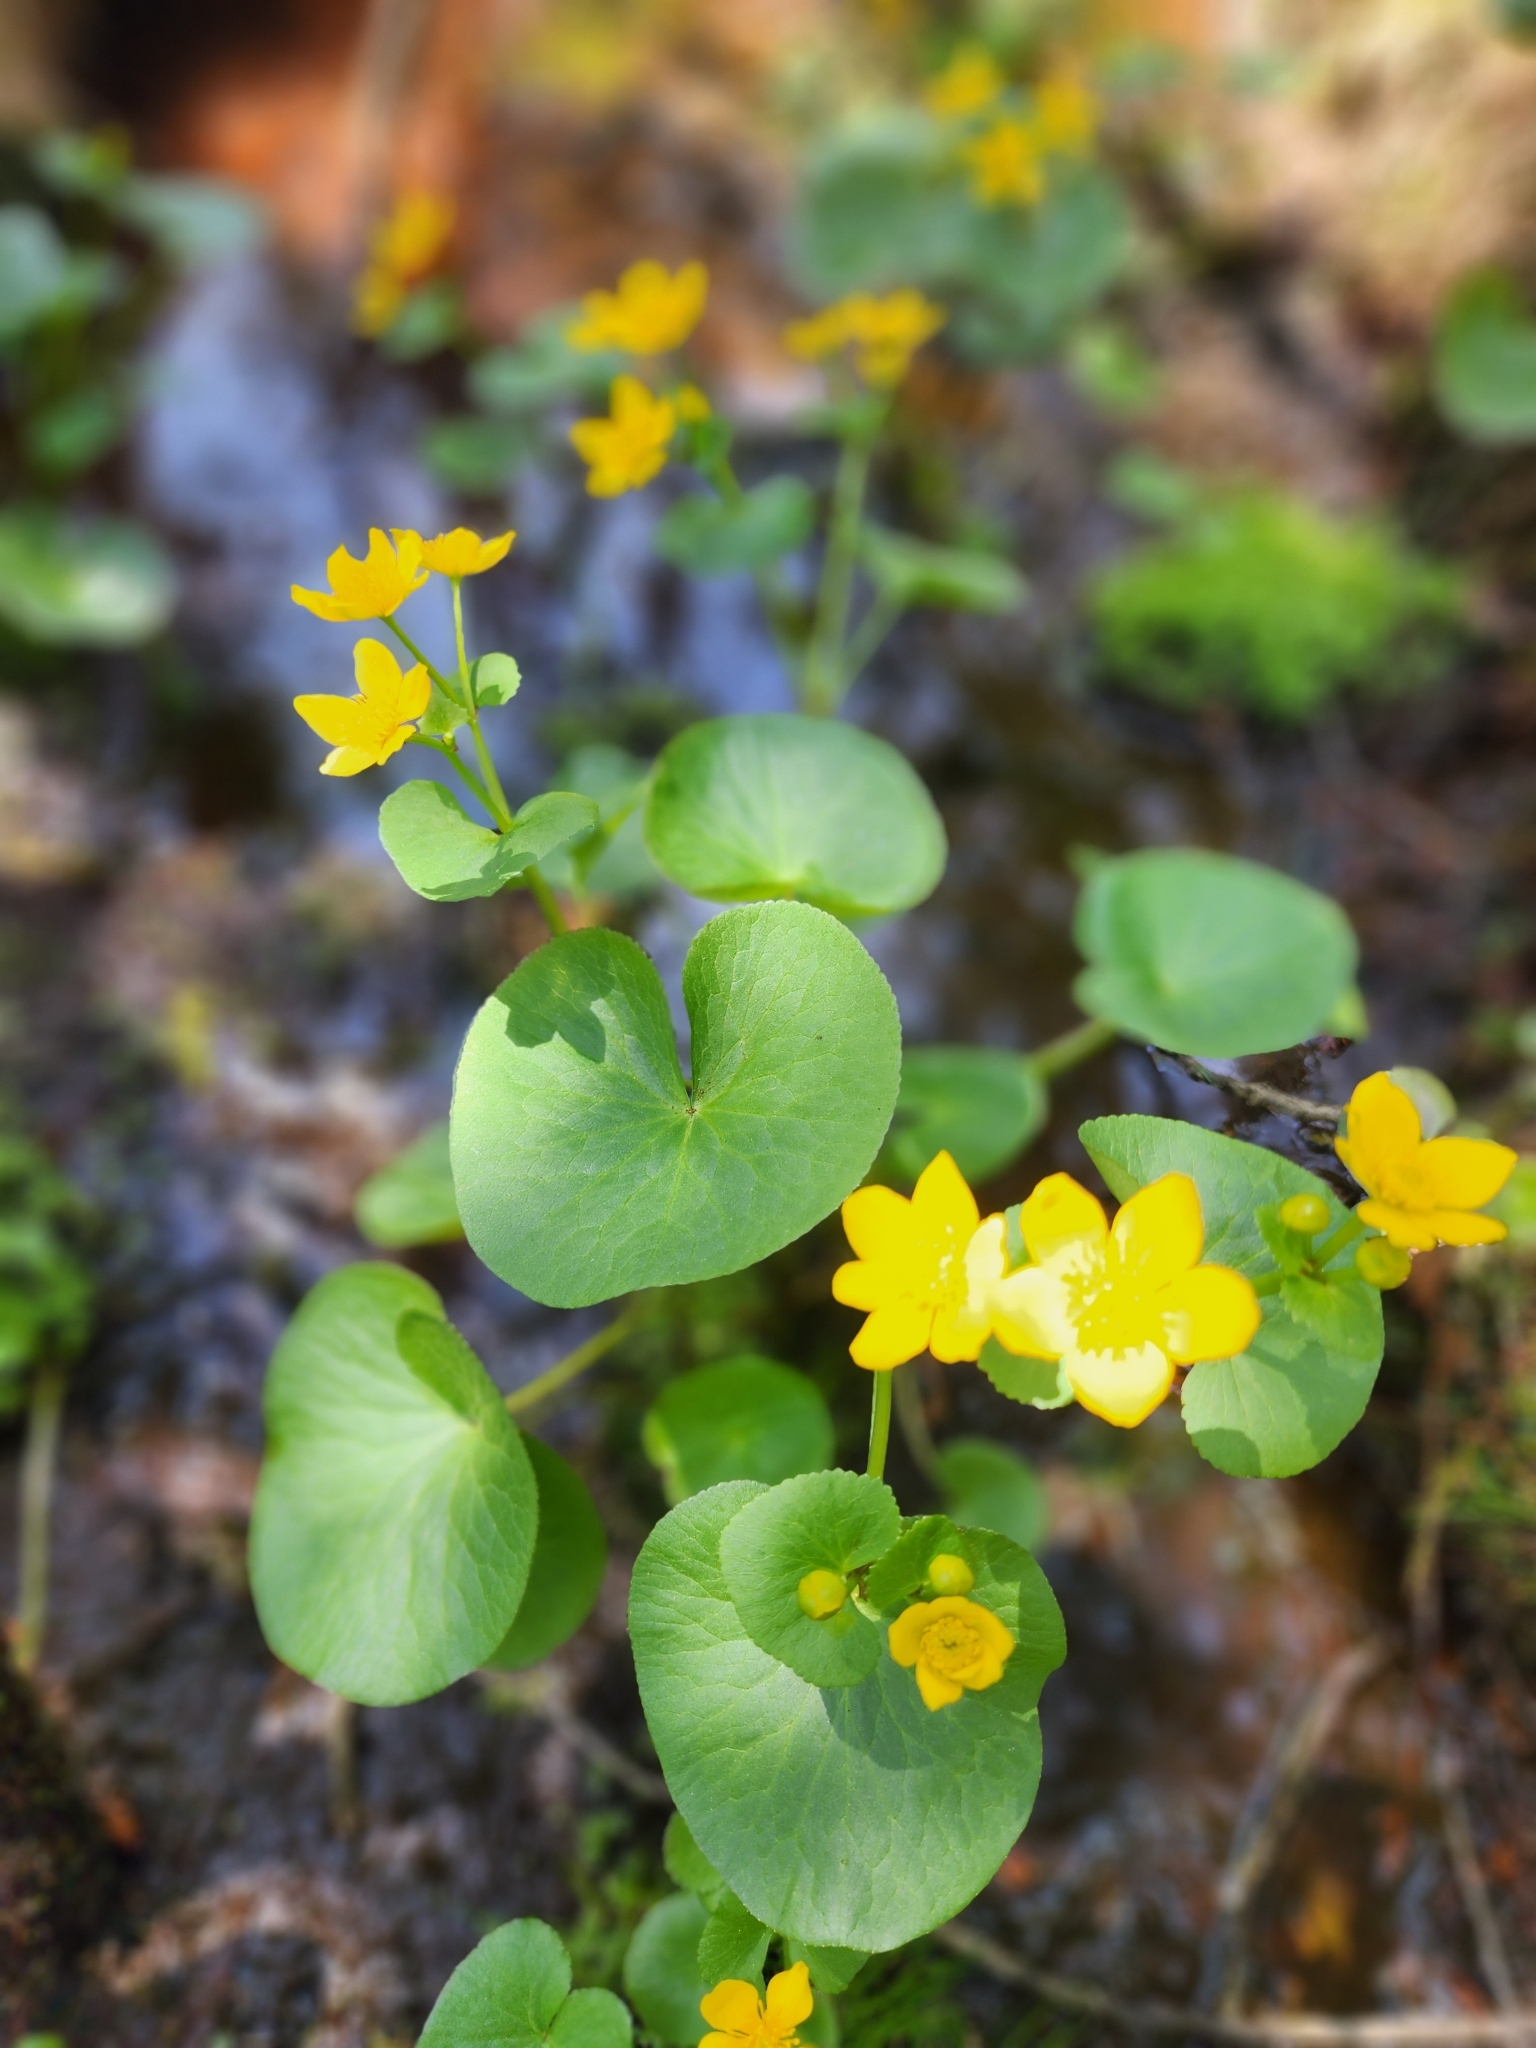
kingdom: Plantae
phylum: Tracheophyta
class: Magnoliopsida
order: Ranunculales
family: Ranunculaceae
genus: Caltha
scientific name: Caltha palustris
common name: Marsh marigold
